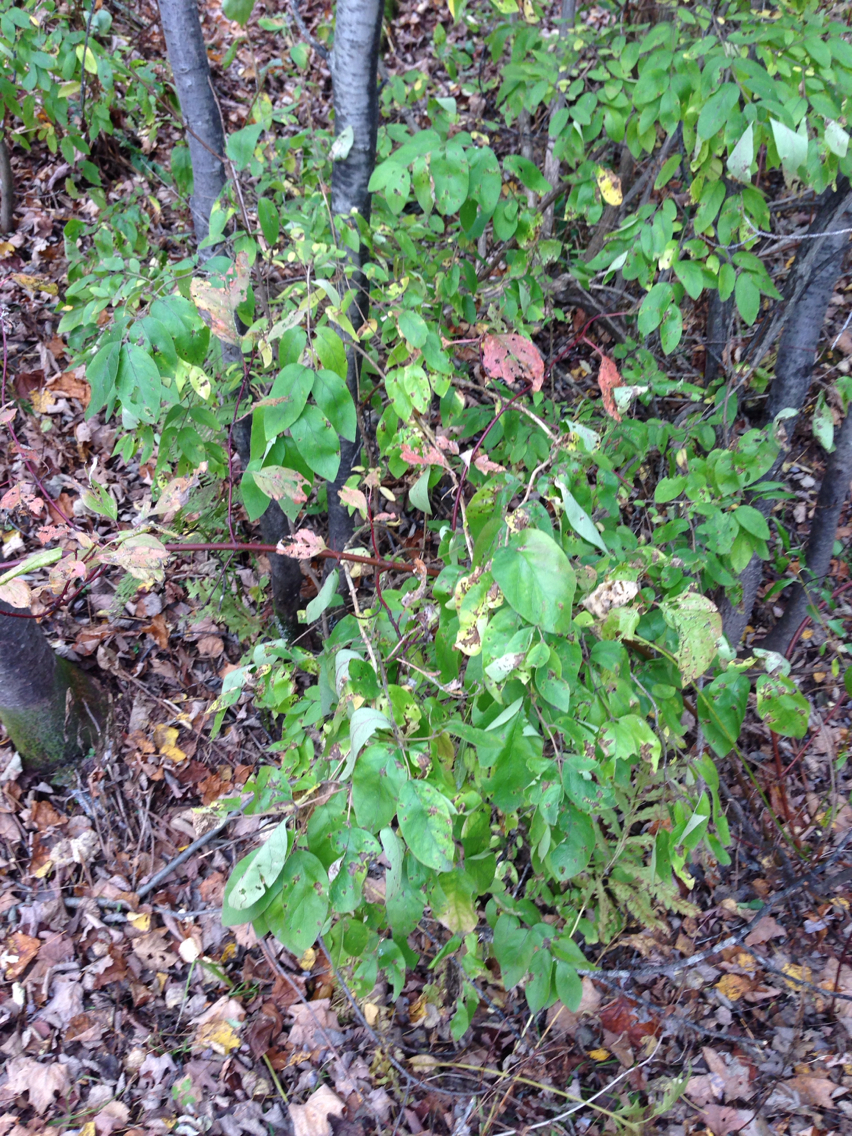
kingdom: Plantae
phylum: Tracheophyta
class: Magnoliopsida
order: Dipsacales
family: Caprifoliaceae
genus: Lonicera
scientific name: Lonicera morrowii
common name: Morrow's honeysuckle
